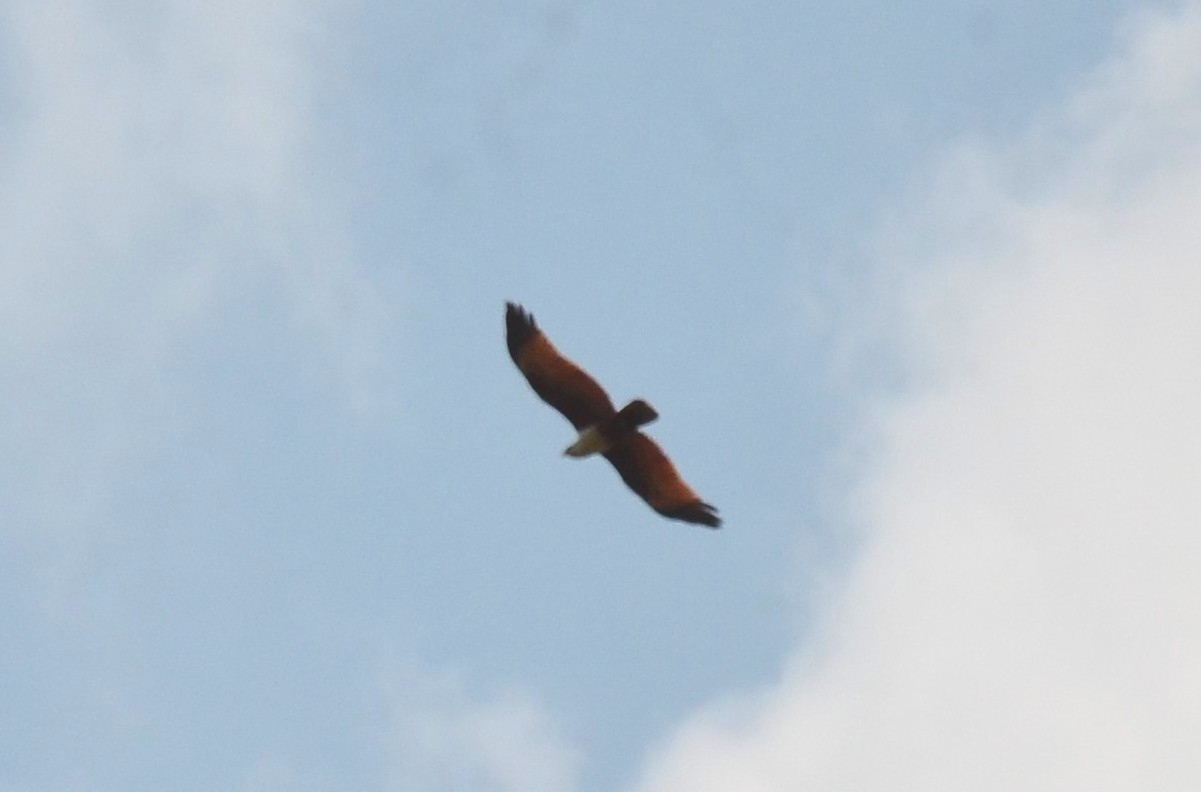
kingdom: Animalia
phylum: Chordata
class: Aves
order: Accipitriformes
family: Accipitridae
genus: Haliastur
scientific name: Haliastur indus
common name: Brahminy kite
